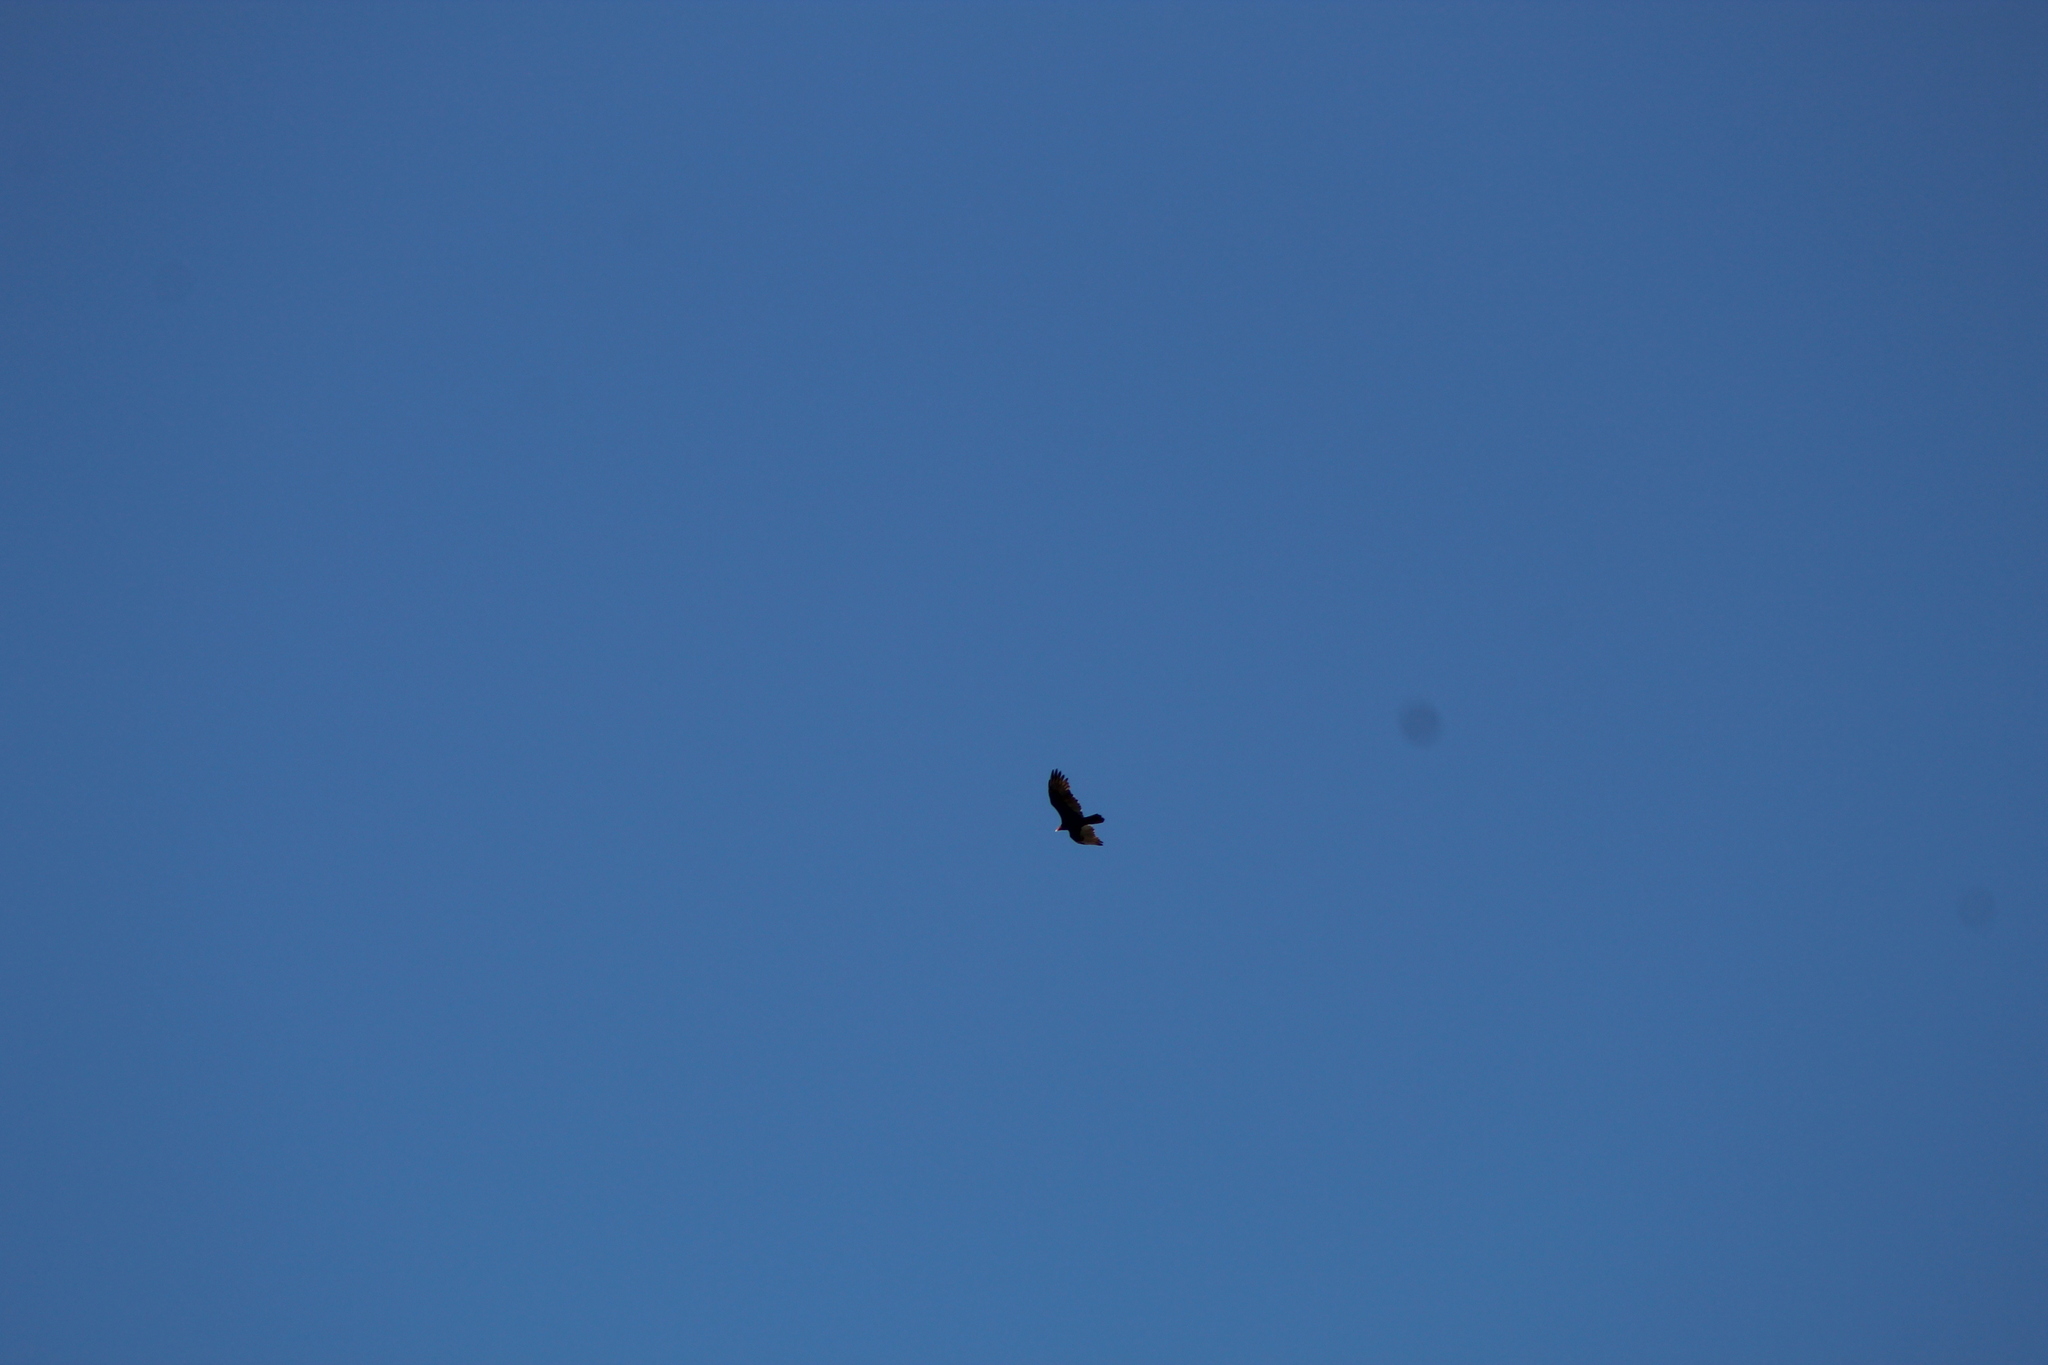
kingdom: Animalia
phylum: Chordata
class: Aves
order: Accipitriformes
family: Cathartidae
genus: Cathartes
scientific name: Cathartes aura
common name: Turkey vulture
